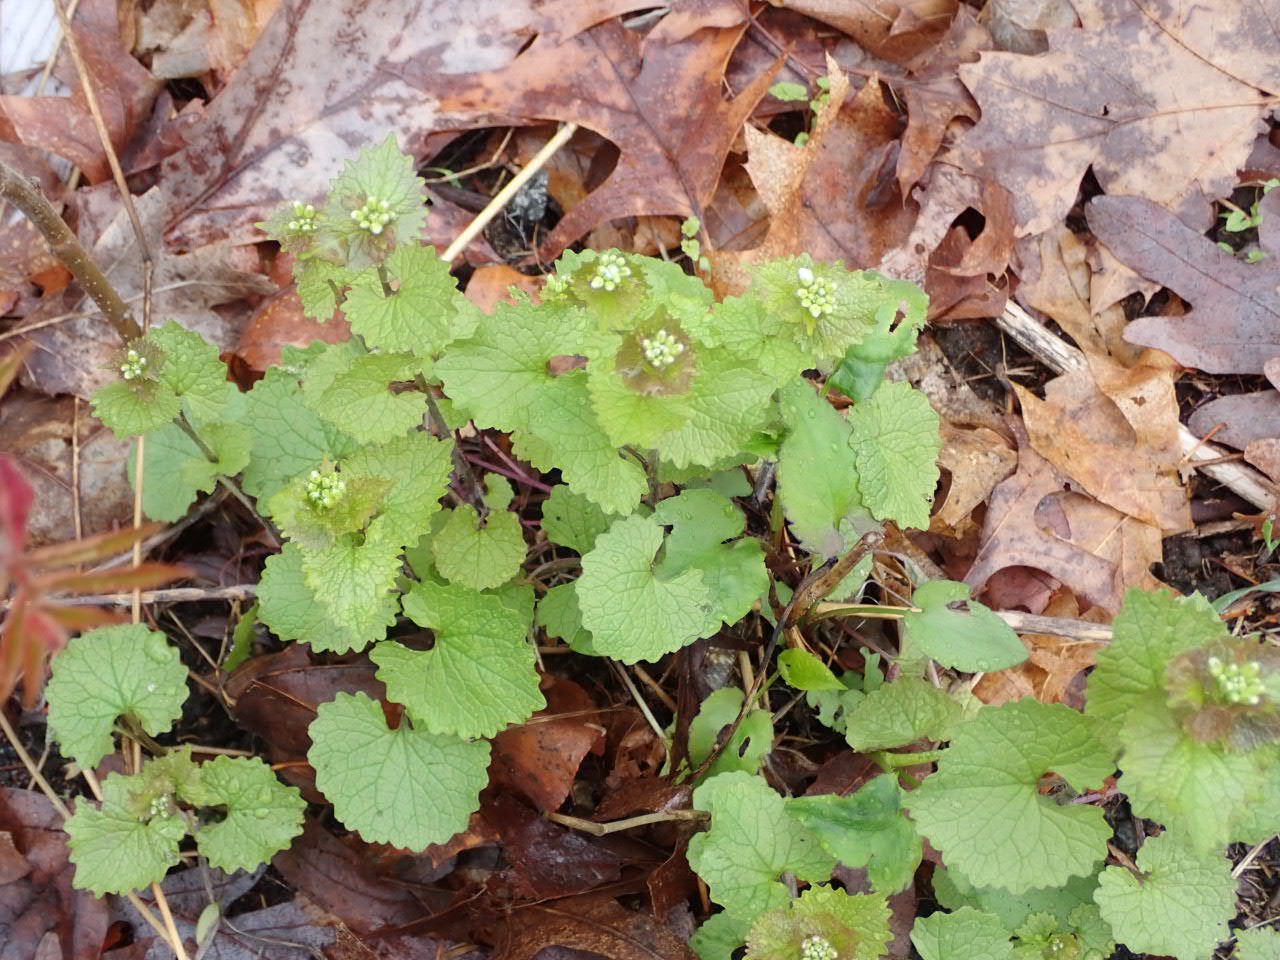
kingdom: Plantae
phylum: Tracheophyta
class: Magnoliopsida
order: Brassicales
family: Brassicaceae
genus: Alliaria
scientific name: Alliaria petiolata
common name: Garlic mustard
